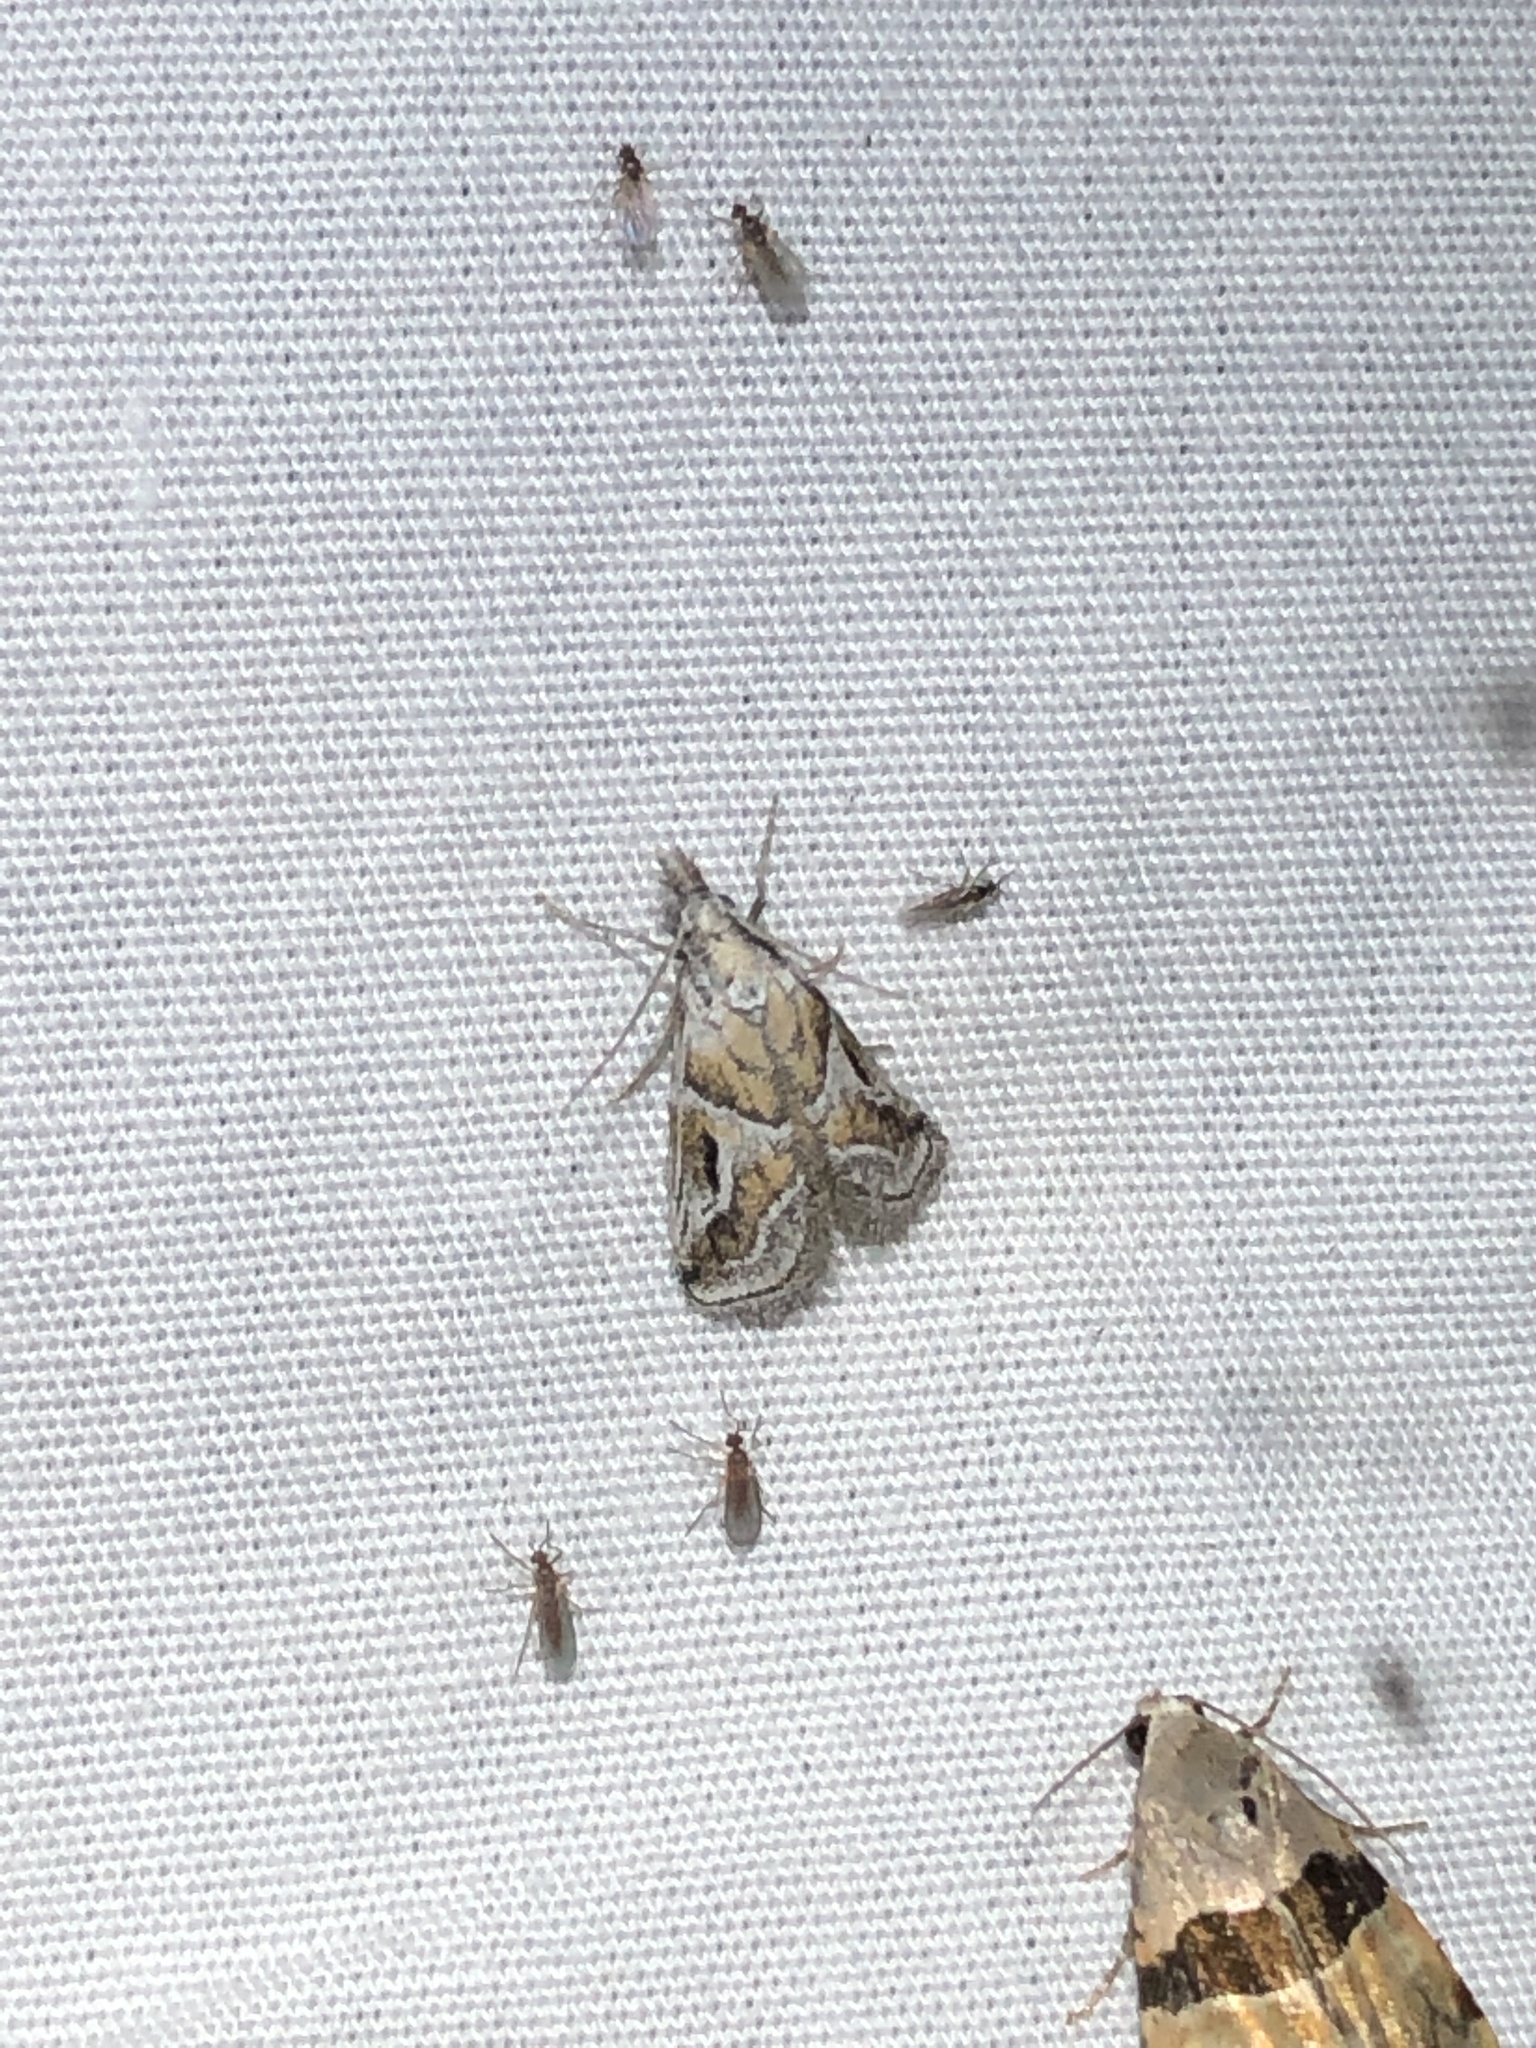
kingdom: Animalia
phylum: Arthropoda
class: Insecta
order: Lepidoptera
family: Pyralidae
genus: Alpheias
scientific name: Alpheias Decaturia pectinalis
